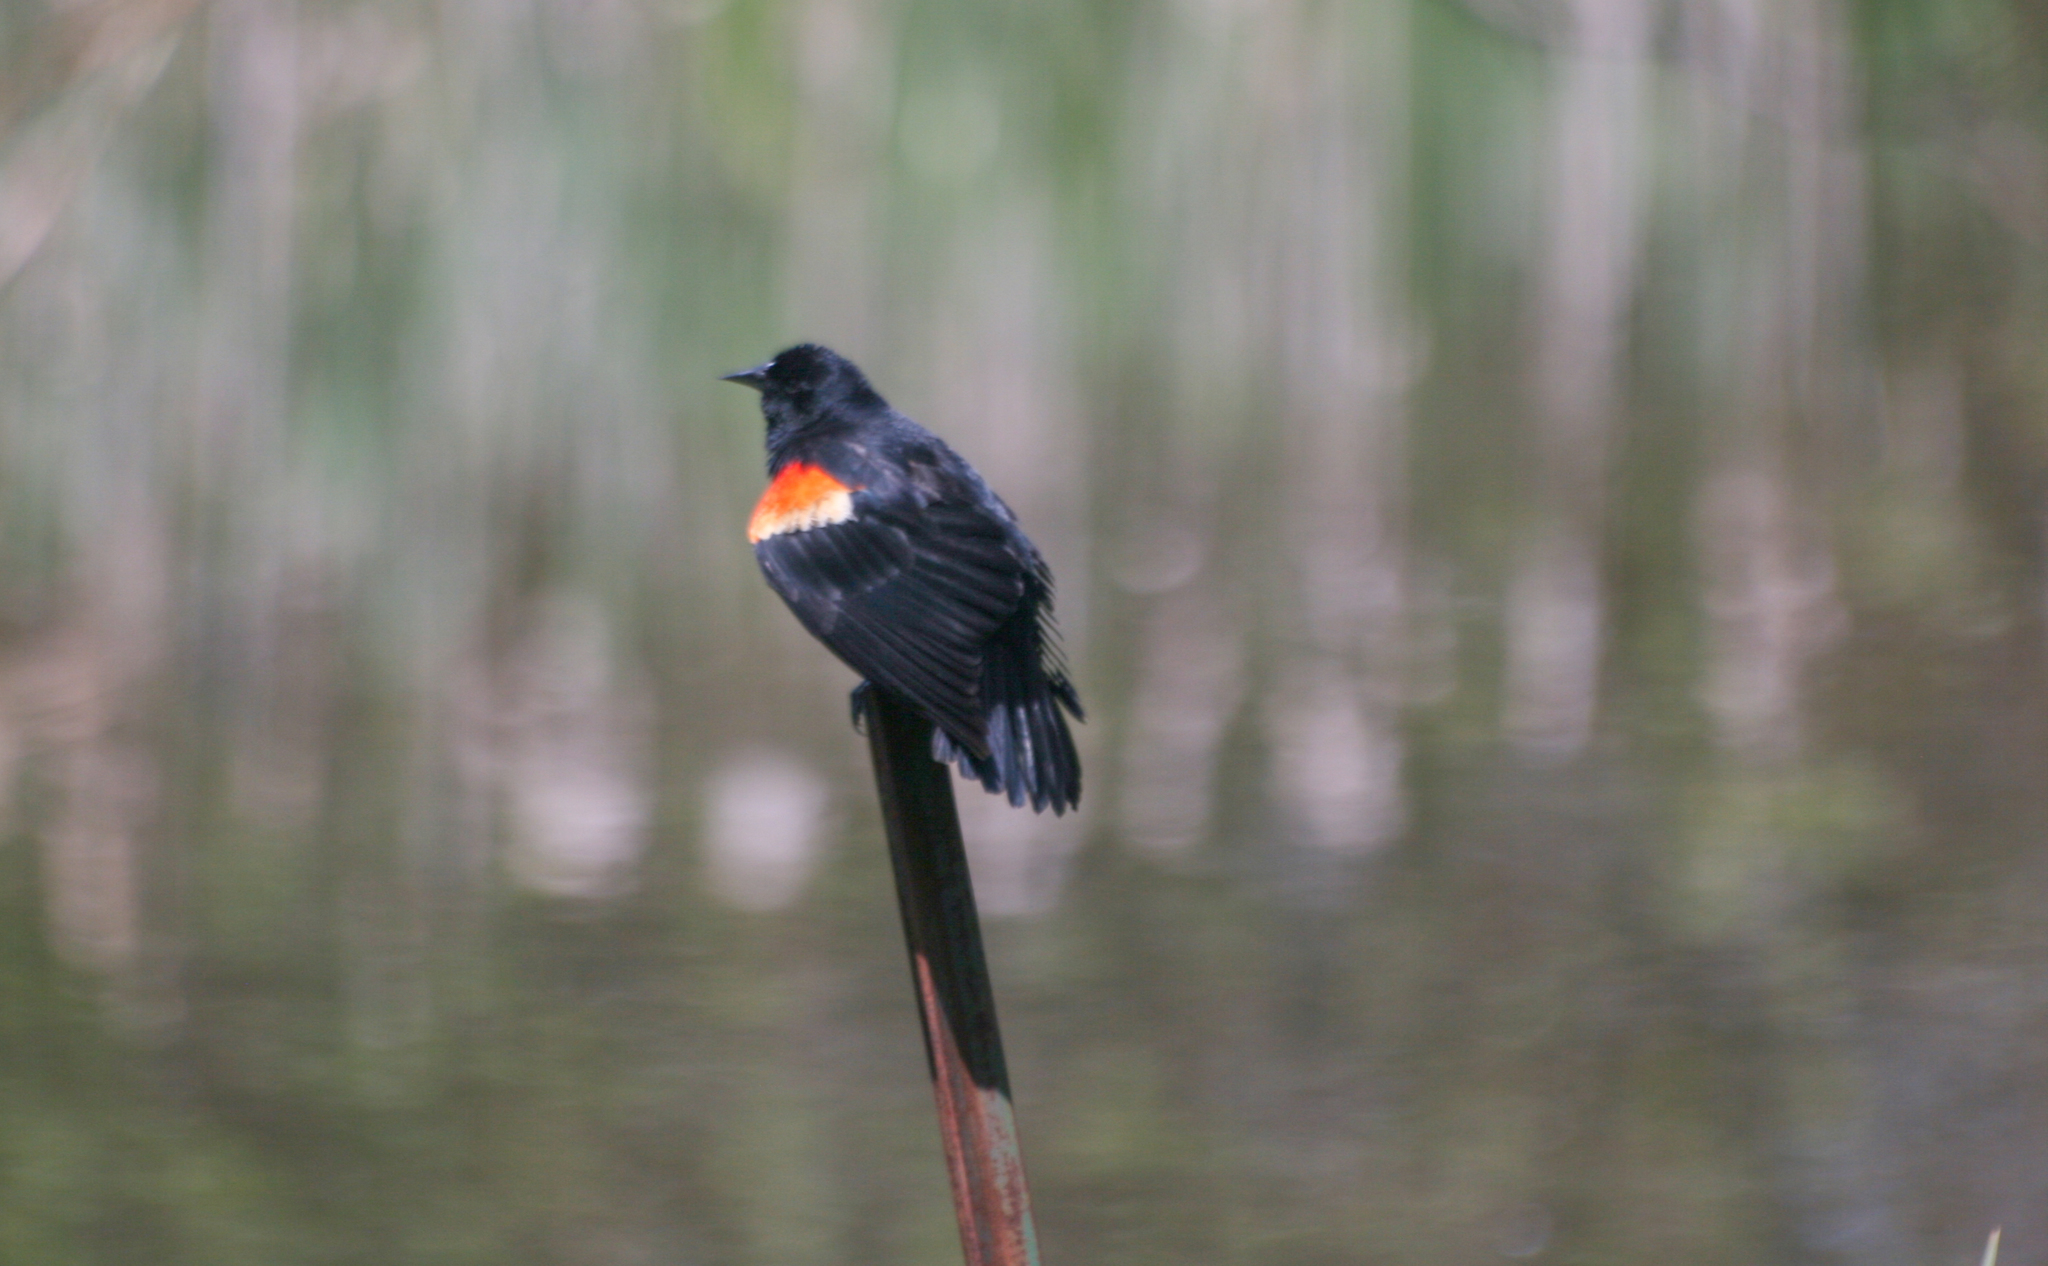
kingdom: Animalia
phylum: Chordata
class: Aves
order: Passeriformes
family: Icteridae
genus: Agelaius
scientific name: Agelaius phoeniceus
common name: Red-winged blackbird
